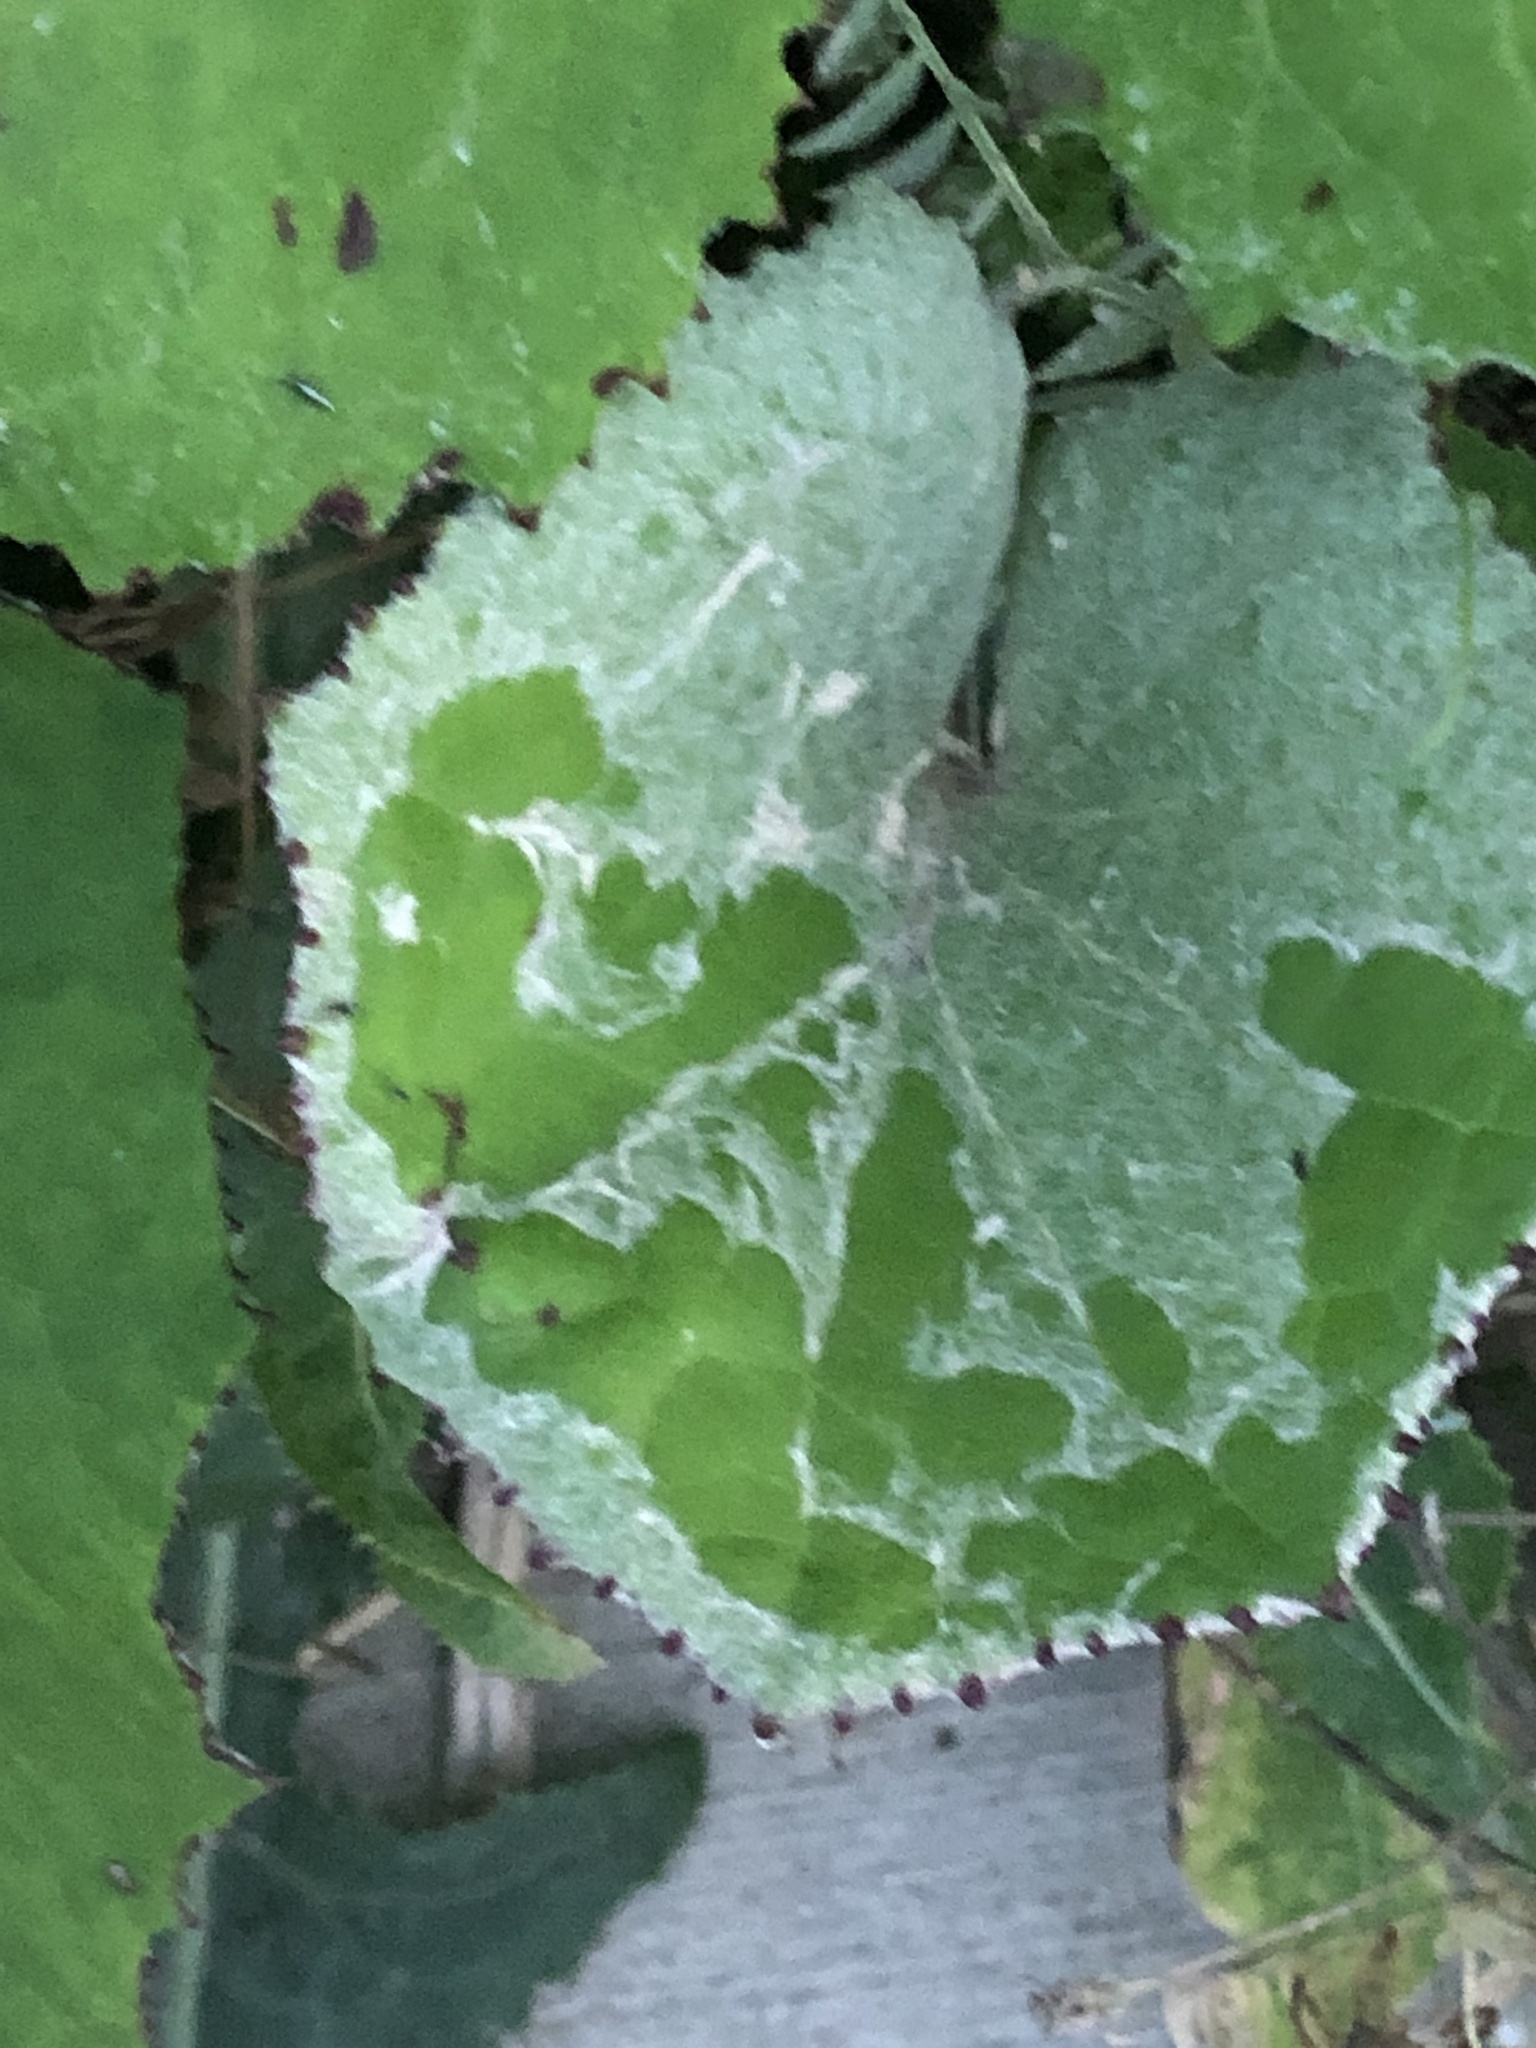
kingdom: Plantae
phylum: Tracheophyta
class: Magnoliopsida
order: Asterales
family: Asteraceae
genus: Tussilago
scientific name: Tussilago farfara
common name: Coltsfoot
